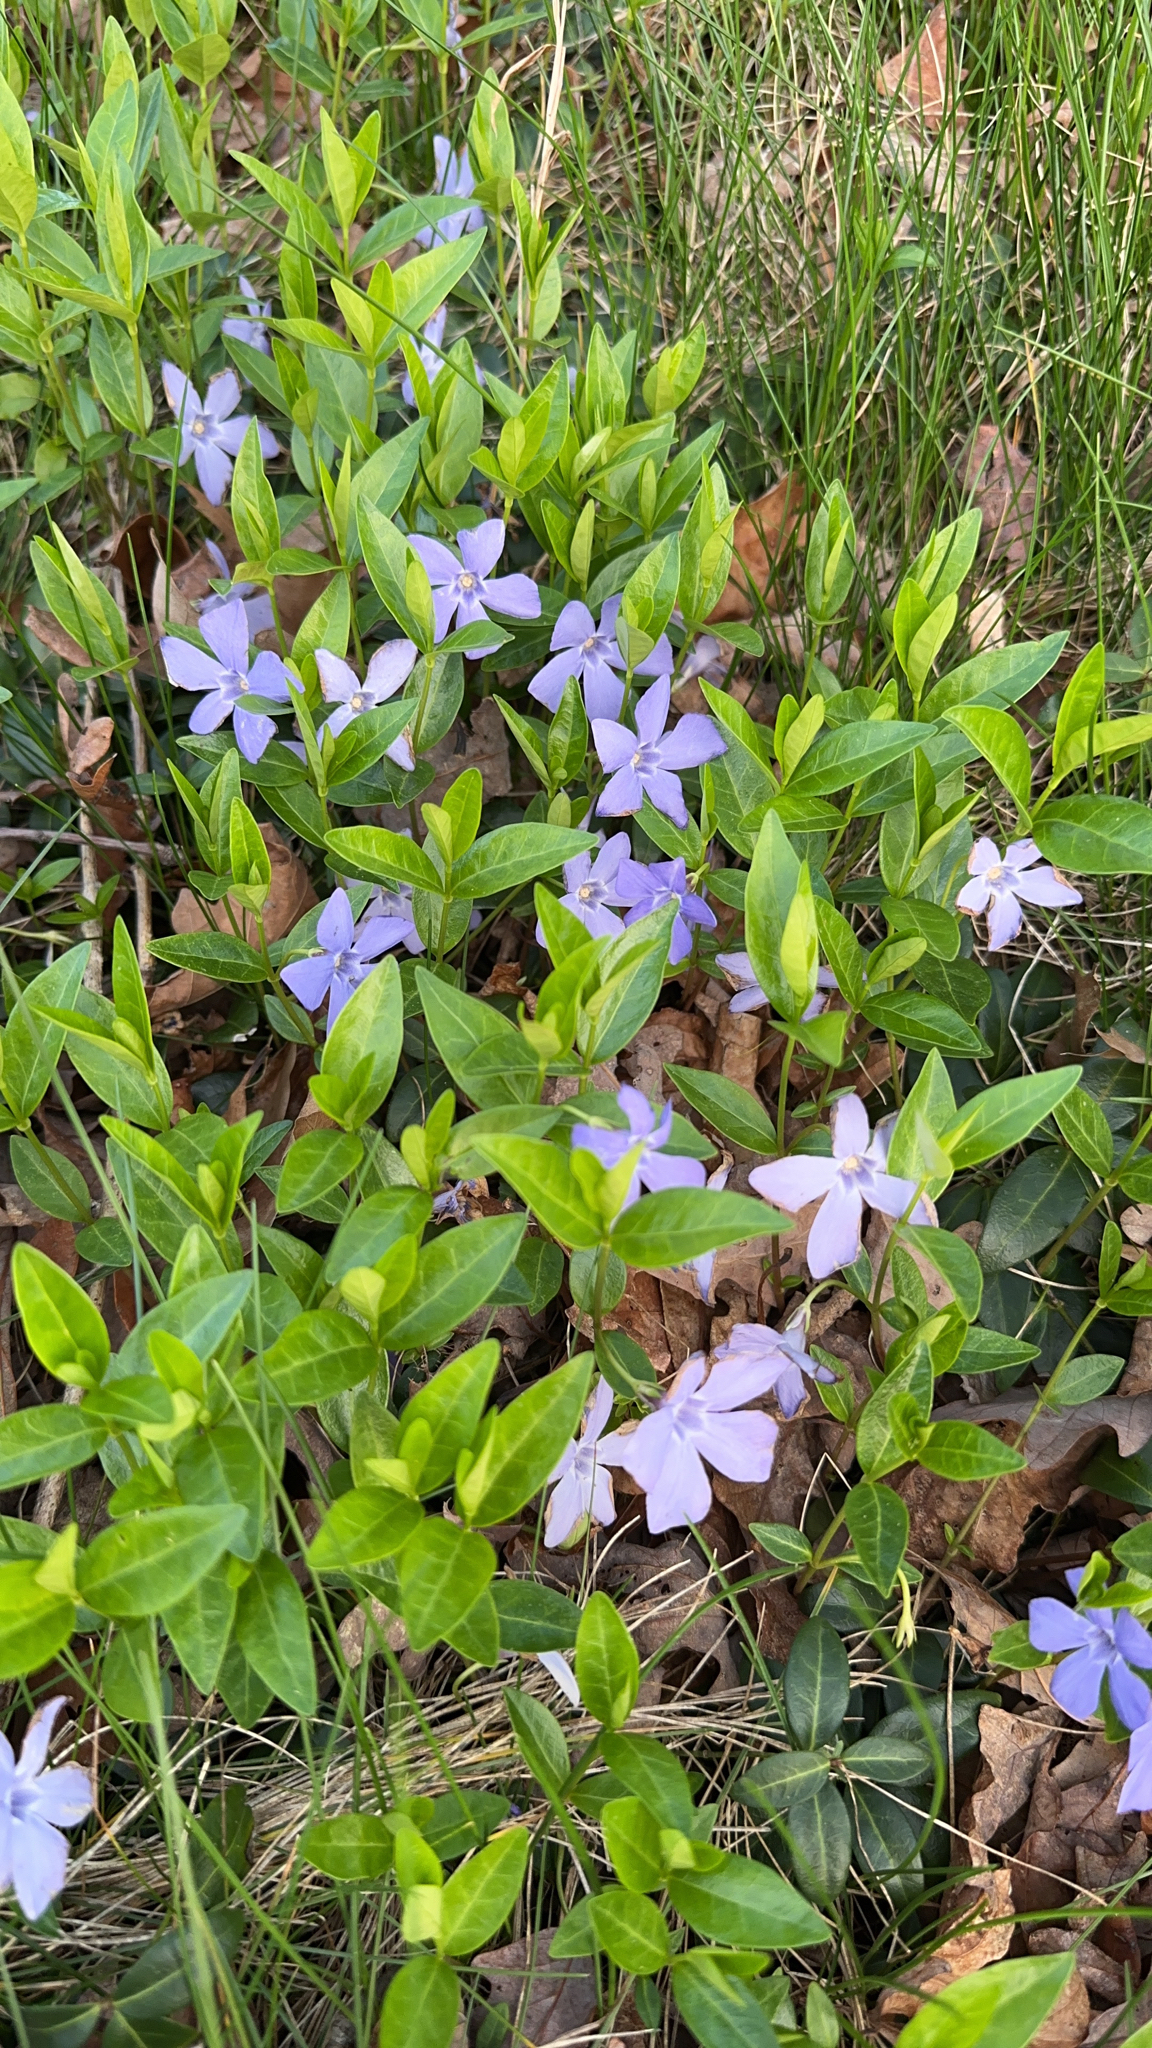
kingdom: Plantae
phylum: Tracheophyta
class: Magnoliopsida
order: Gentianales
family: Apocynaceae
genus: Vinca
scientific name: Vinca minor
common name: Lesser periwinkle
